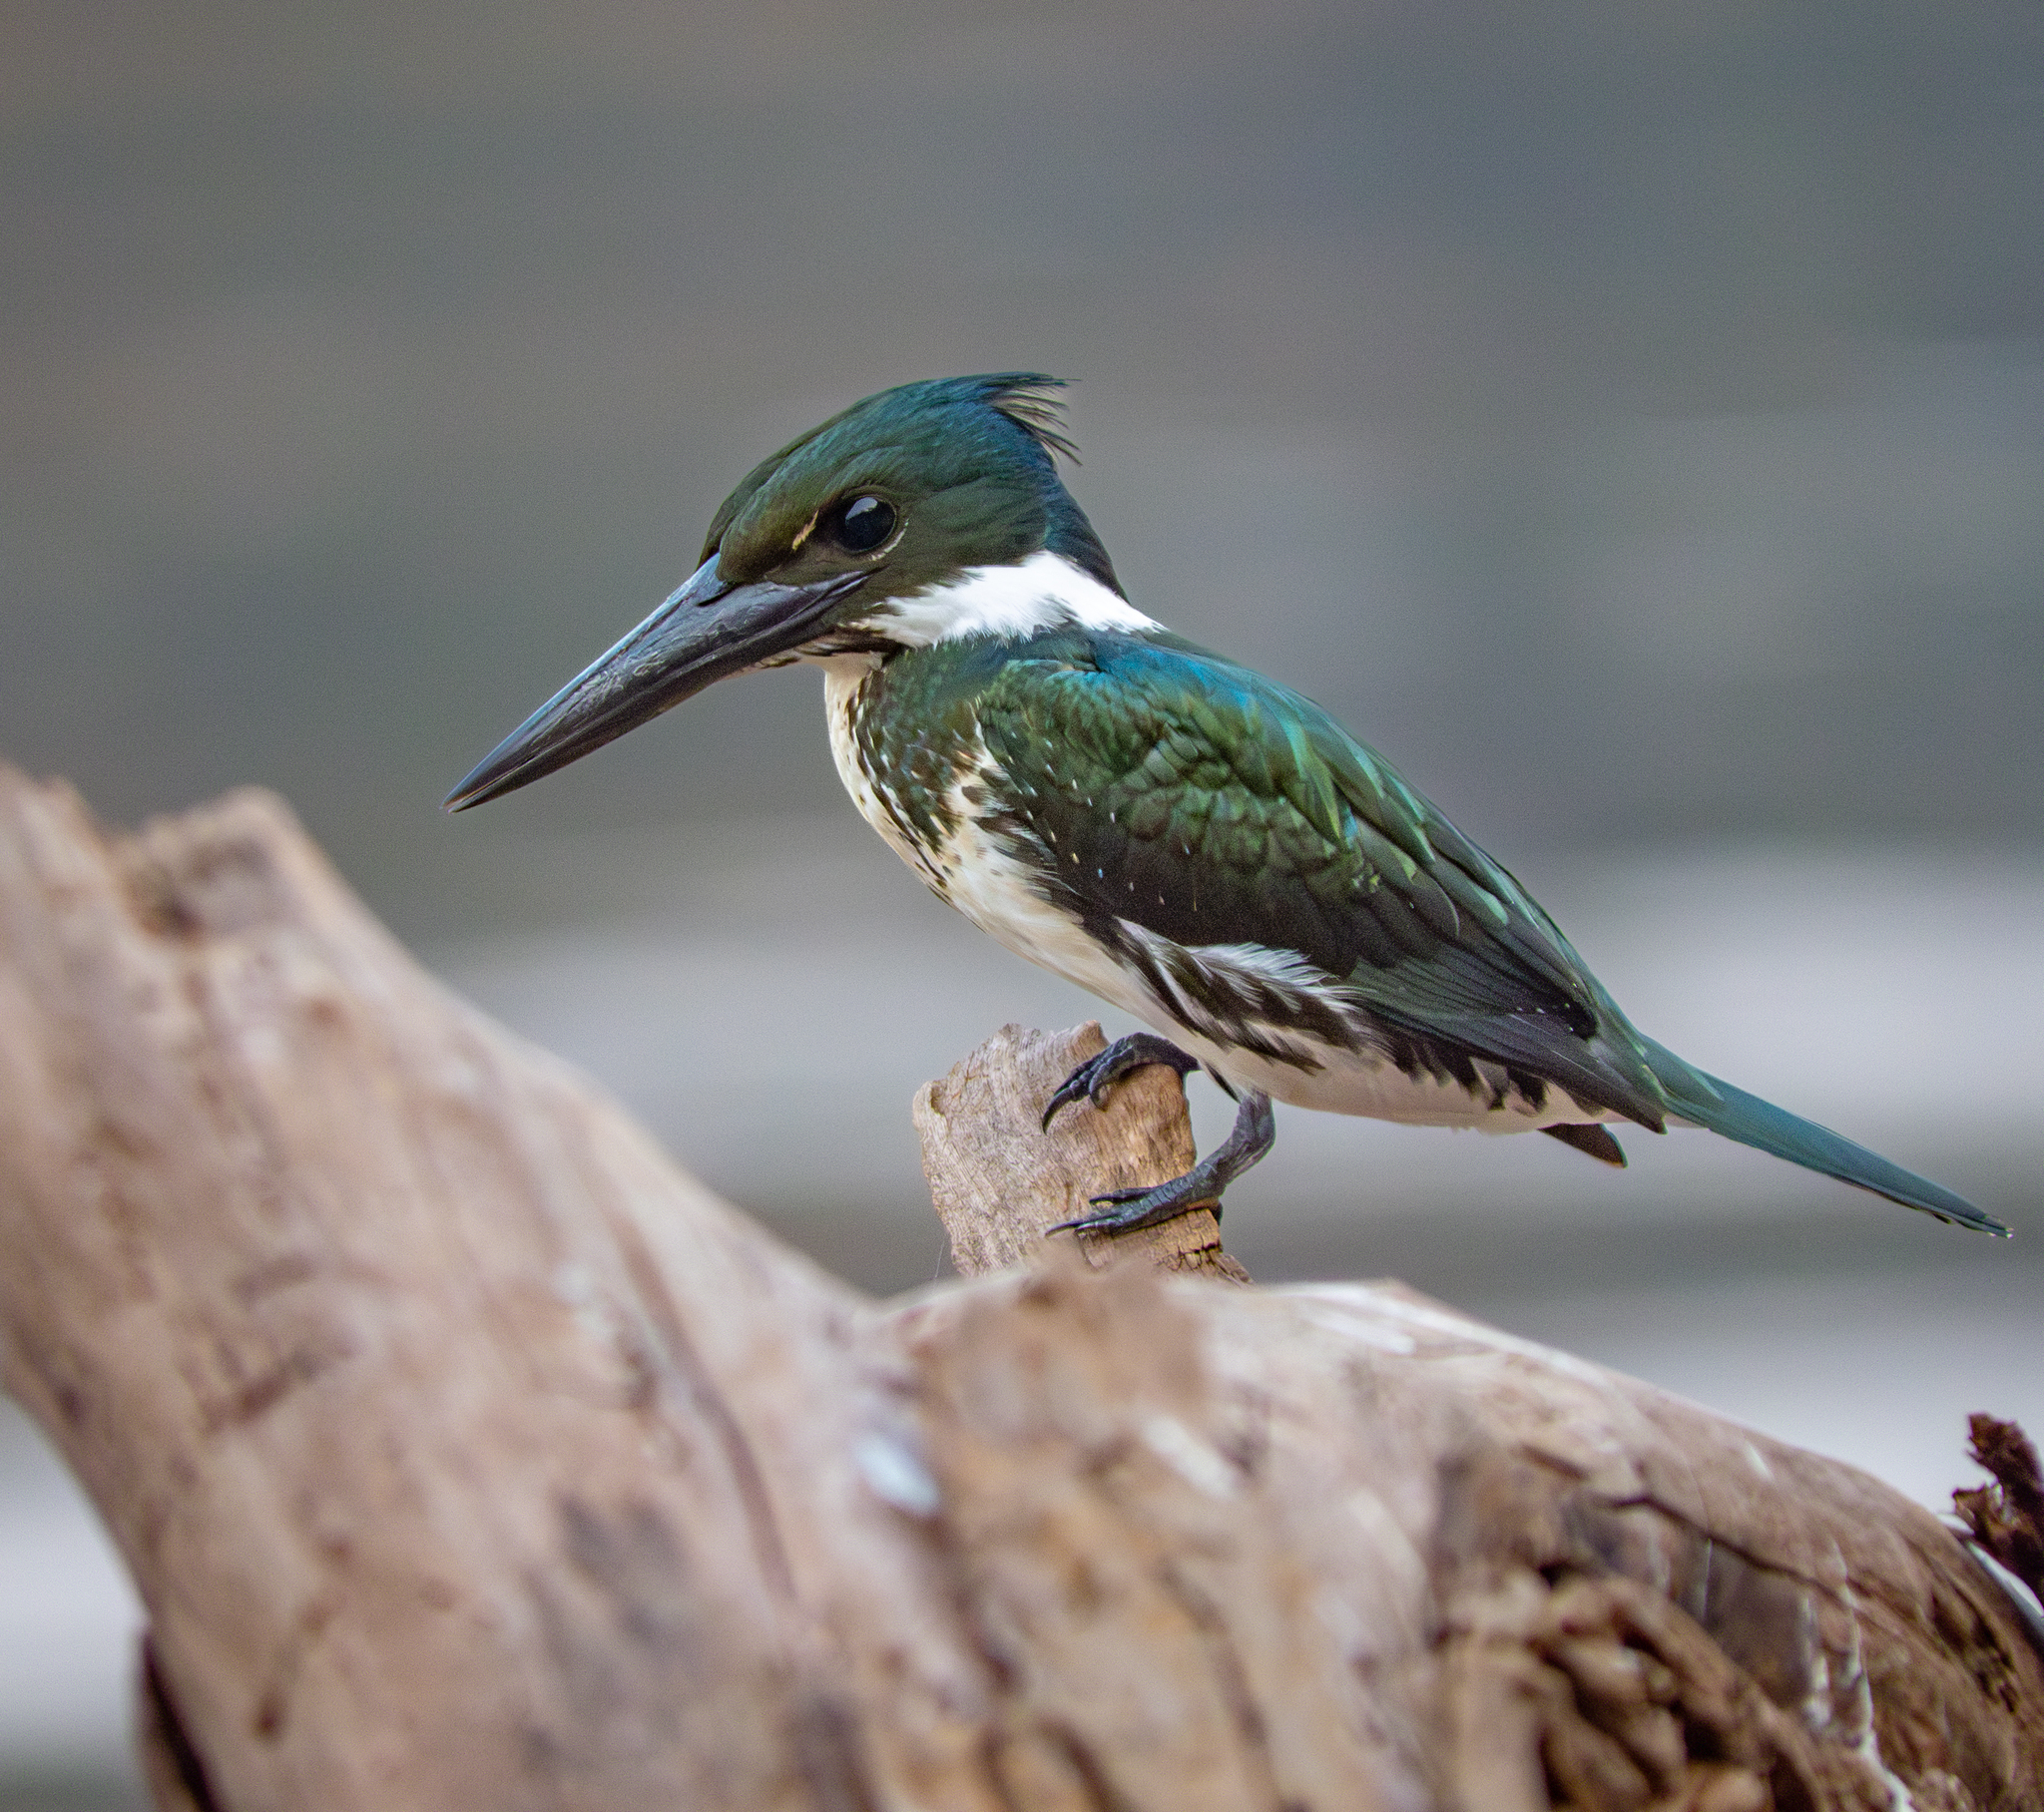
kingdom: Animalia
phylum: Chordata
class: Aves
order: Coraciiformes
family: Alcedinidae
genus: Chloroceryle
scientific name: Chloroceryle amazona
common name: Amazon kingfisher
